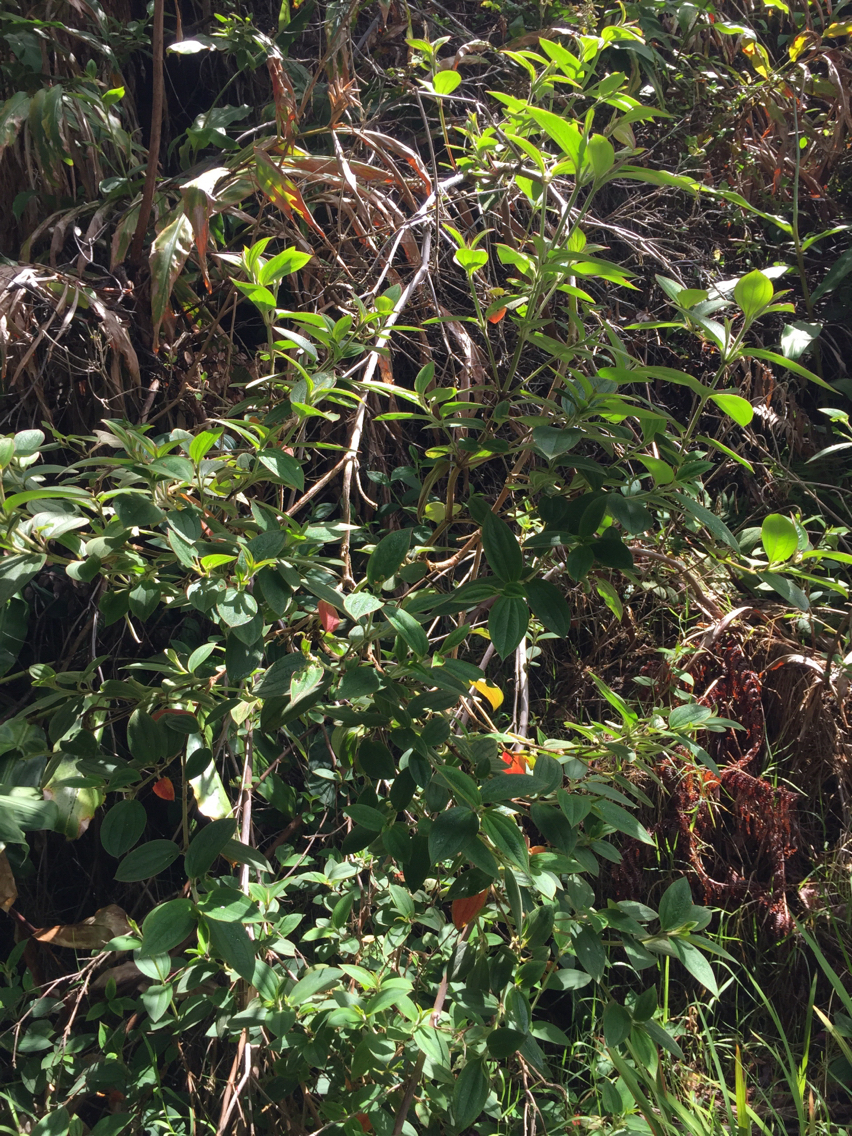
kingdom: Plantae
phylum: Tracheophyta
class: Magnoliopsida
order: Myrtales
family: Melastomataceae
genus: Pleroma
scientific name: Pleroma urvilleanum
